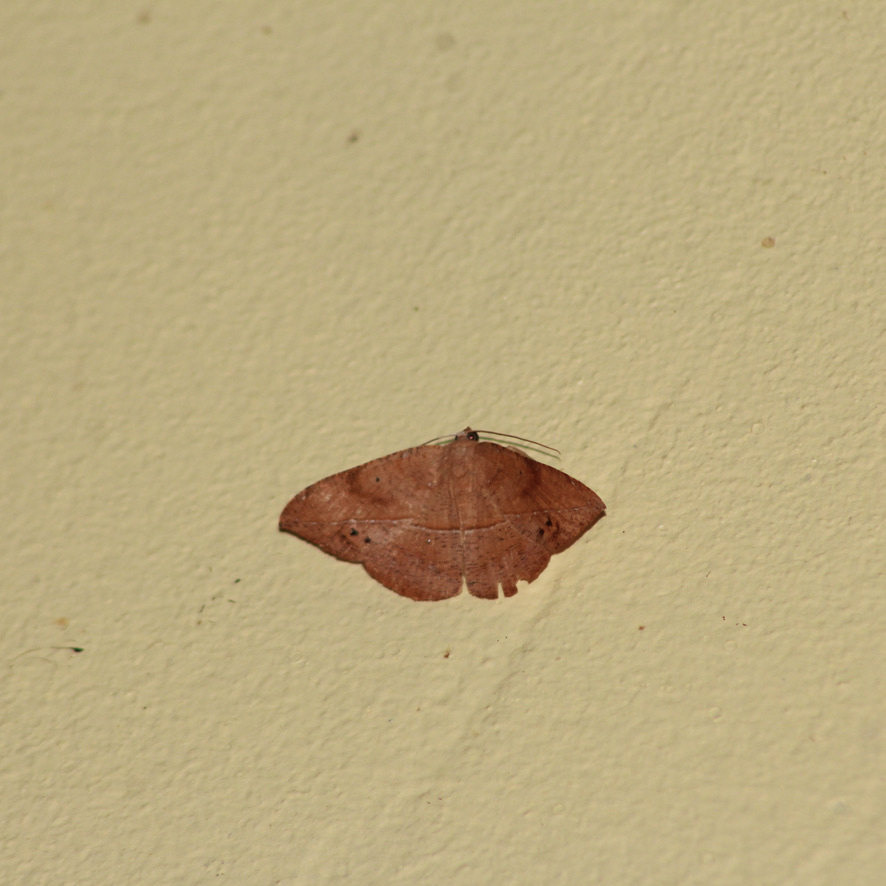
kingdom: Animalia
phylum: Arthropoda
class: Insecta
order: Lepidoptera
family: Geometridae
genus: Patalene
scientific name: Patalene impurpurata
